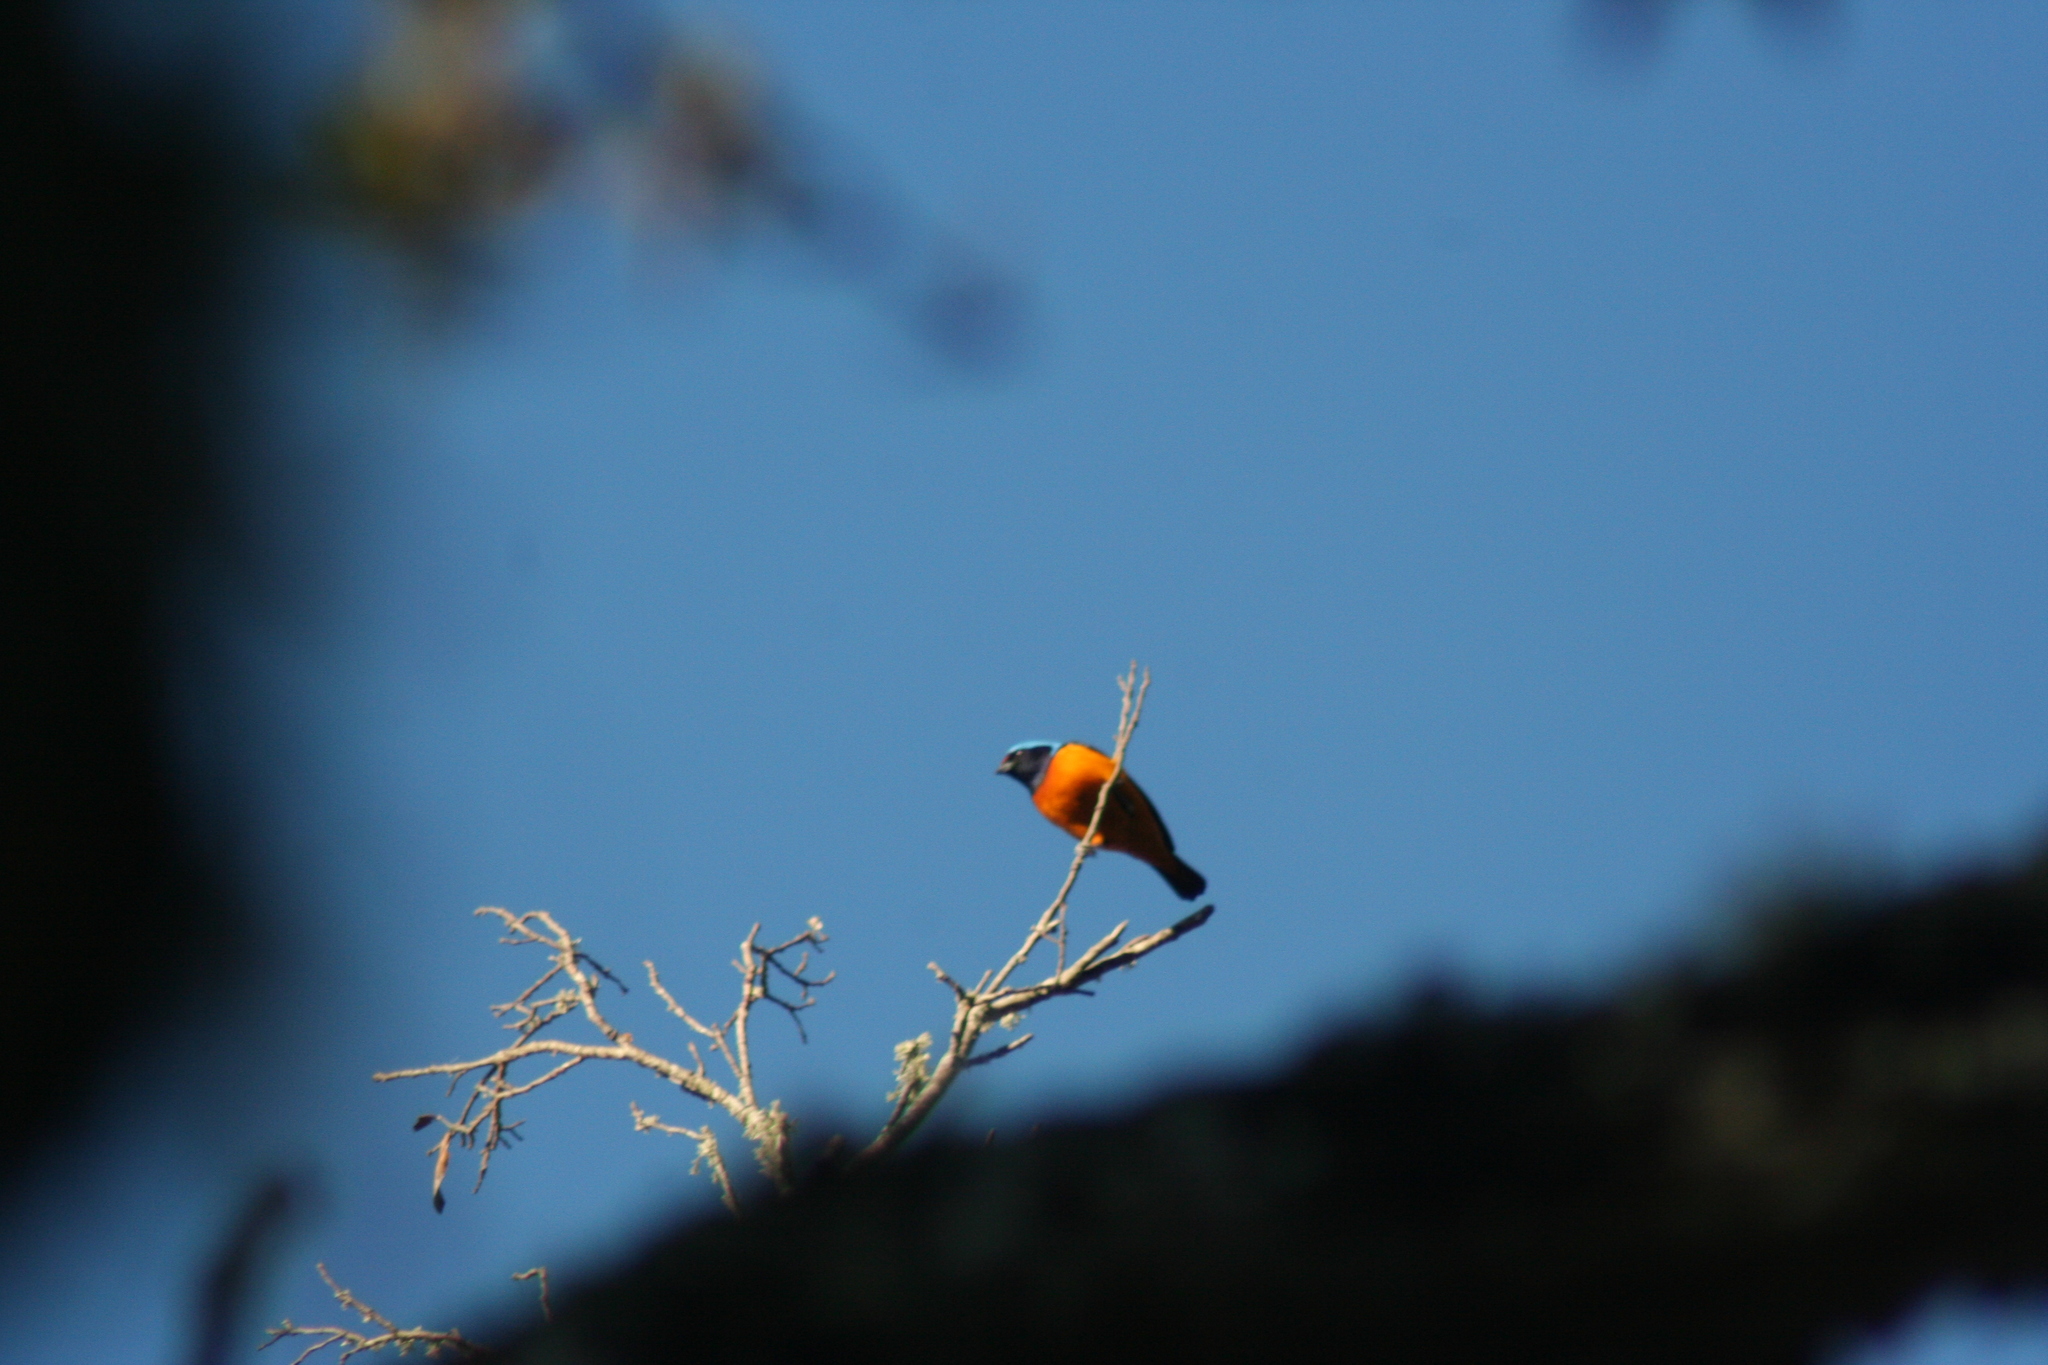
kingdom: Animalia
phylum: Chordata
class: Aves
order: Passeriformes
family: Fringillidae
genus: Euphonia
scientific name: Euphonia elegantissima
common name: Elegant euphonia
